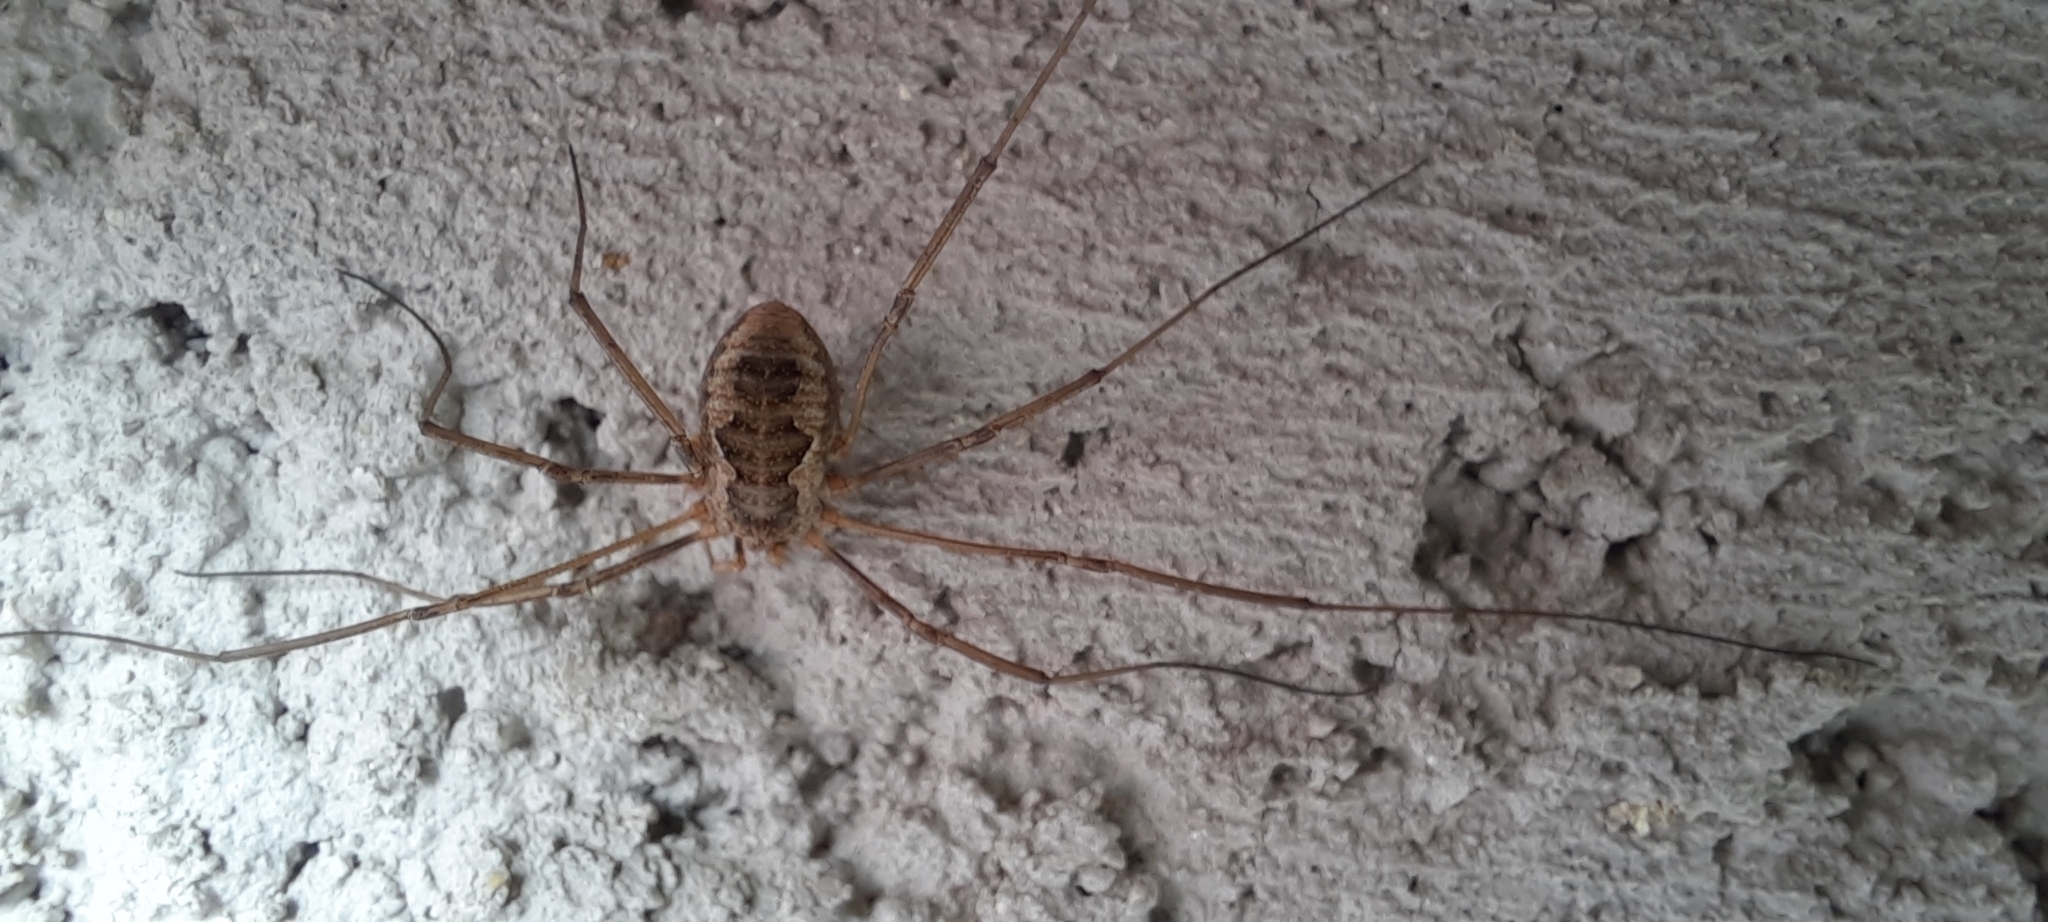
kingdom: Animalia
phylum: Arthropoda
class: Arachnida
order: Opiliones
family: Phalangiidae
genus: Phalangium
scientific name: Phalangium opilio
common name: Daddy longleg
